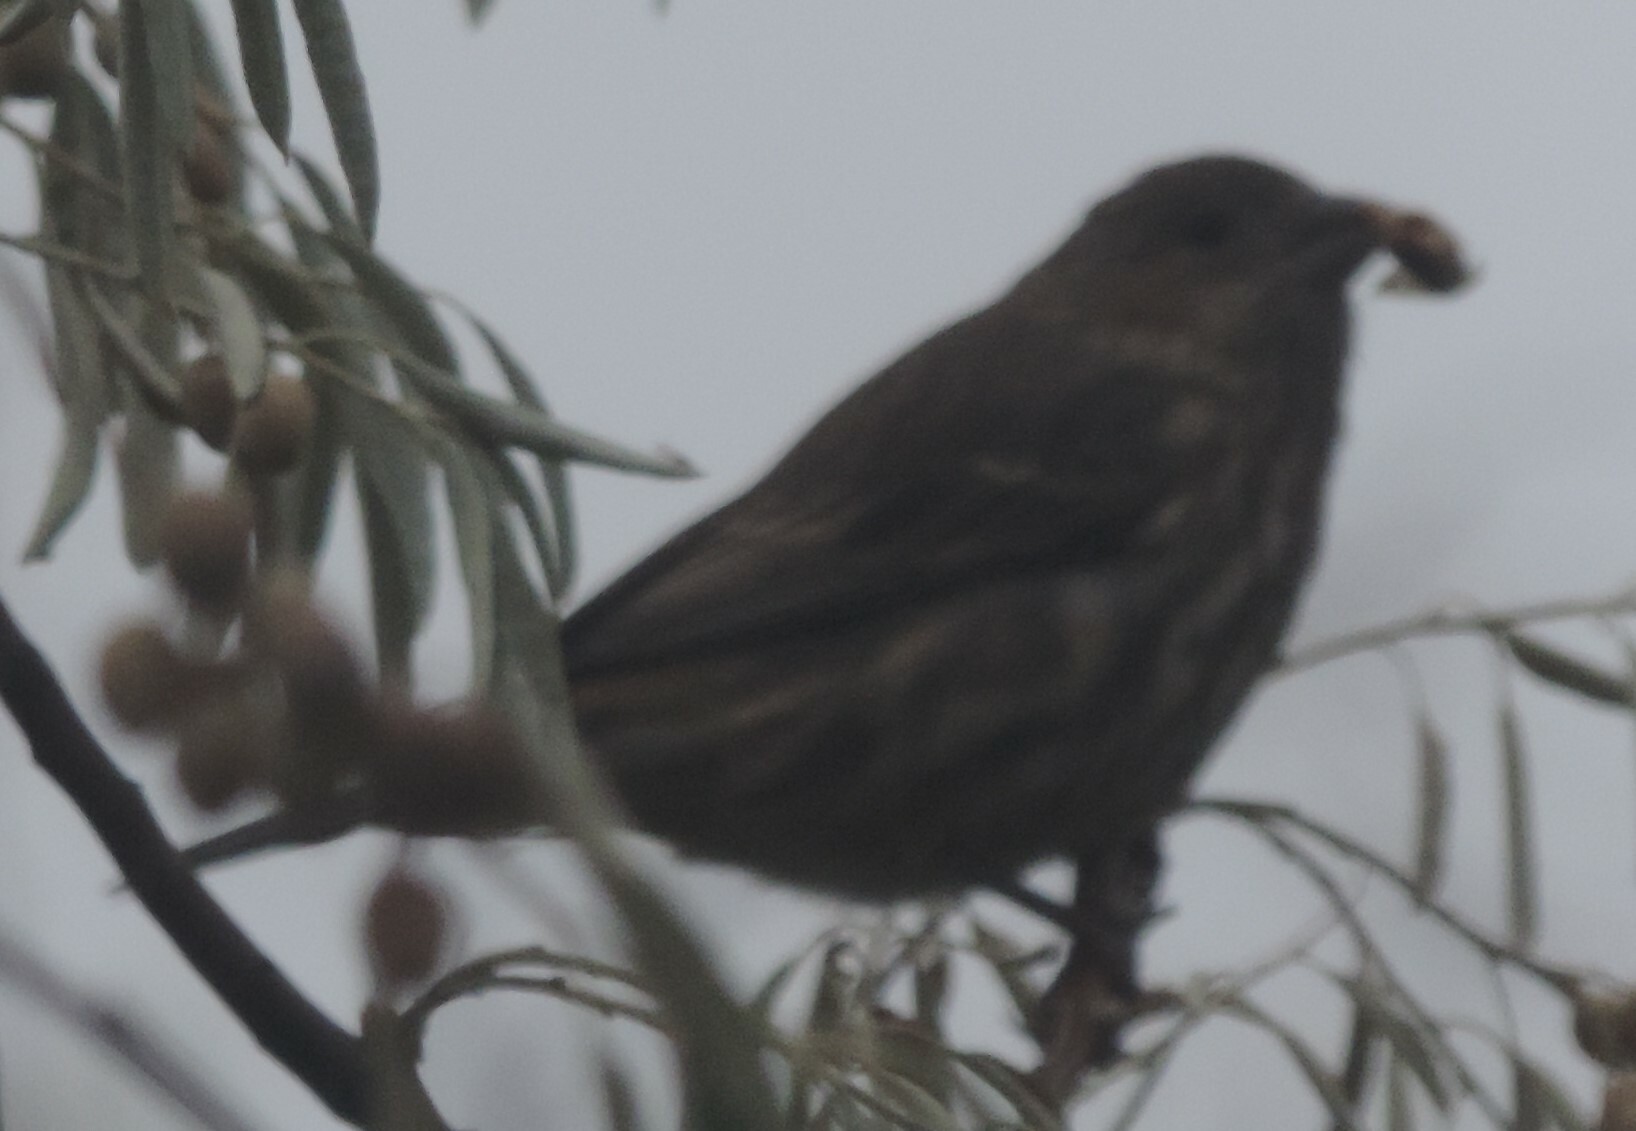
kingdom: Animalia
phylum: Chordata
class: Aves
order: Passeriformes
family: Fringillidae
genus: Haemorhous
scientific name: Haemorhous mexicanus
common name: House finch
